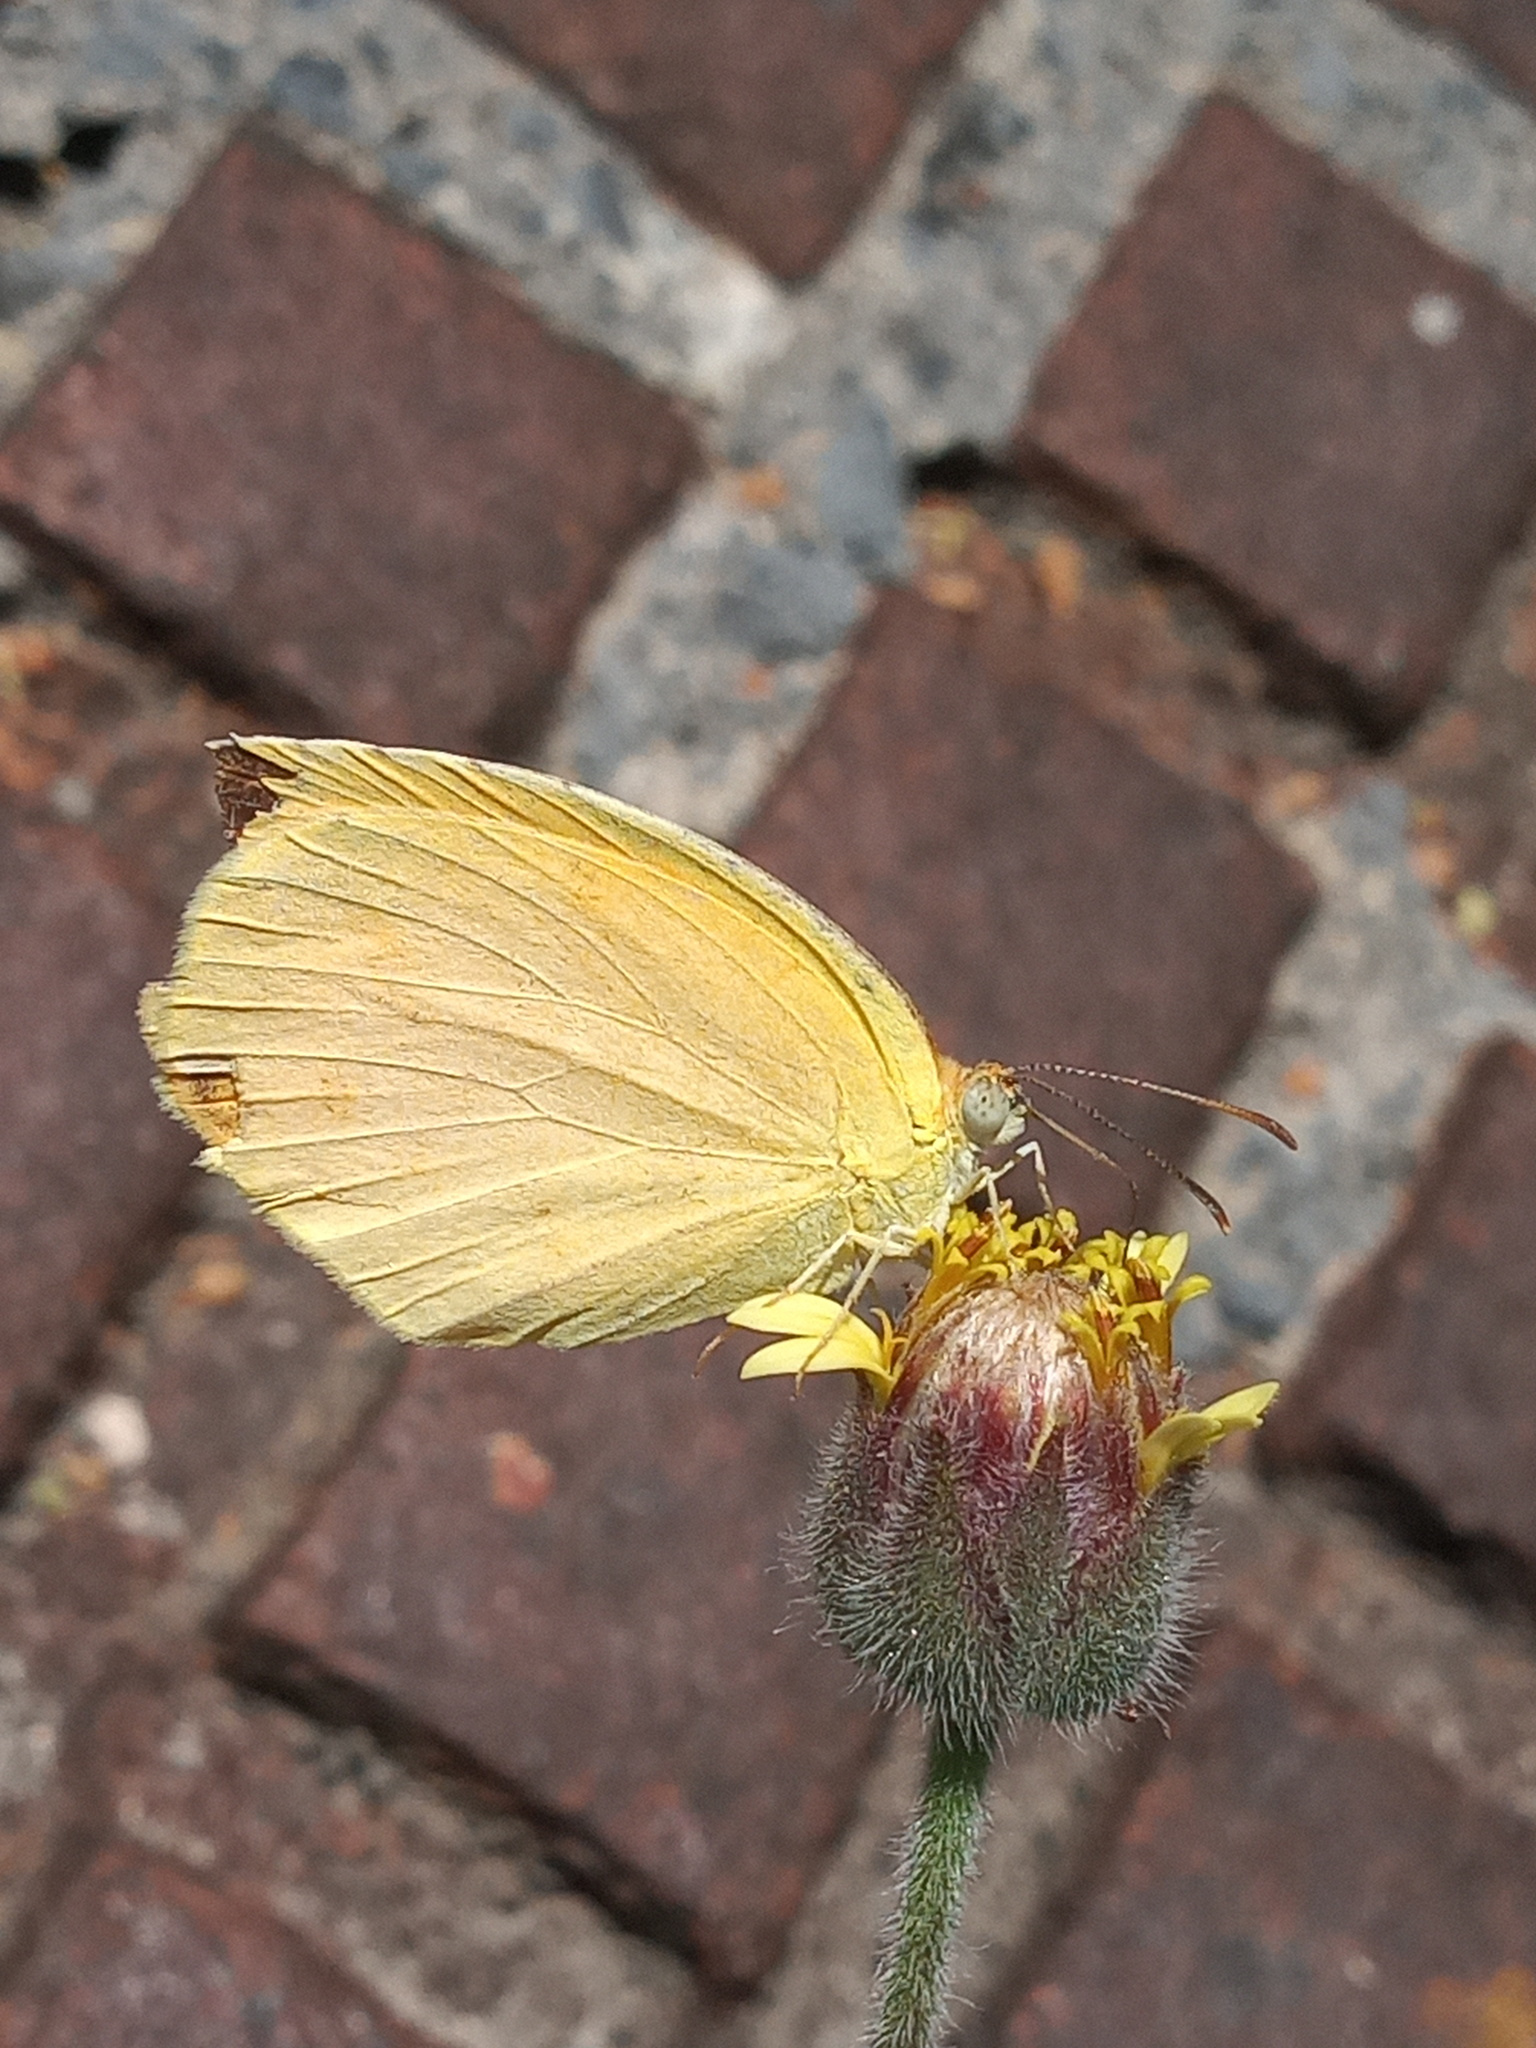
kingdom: Animalia
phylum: Arthropoda
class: Insecta
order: Lepidoptera
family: Pieridae
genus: Pyrisitia
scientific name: Pyrisitia proterpia
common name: Tailed orange
